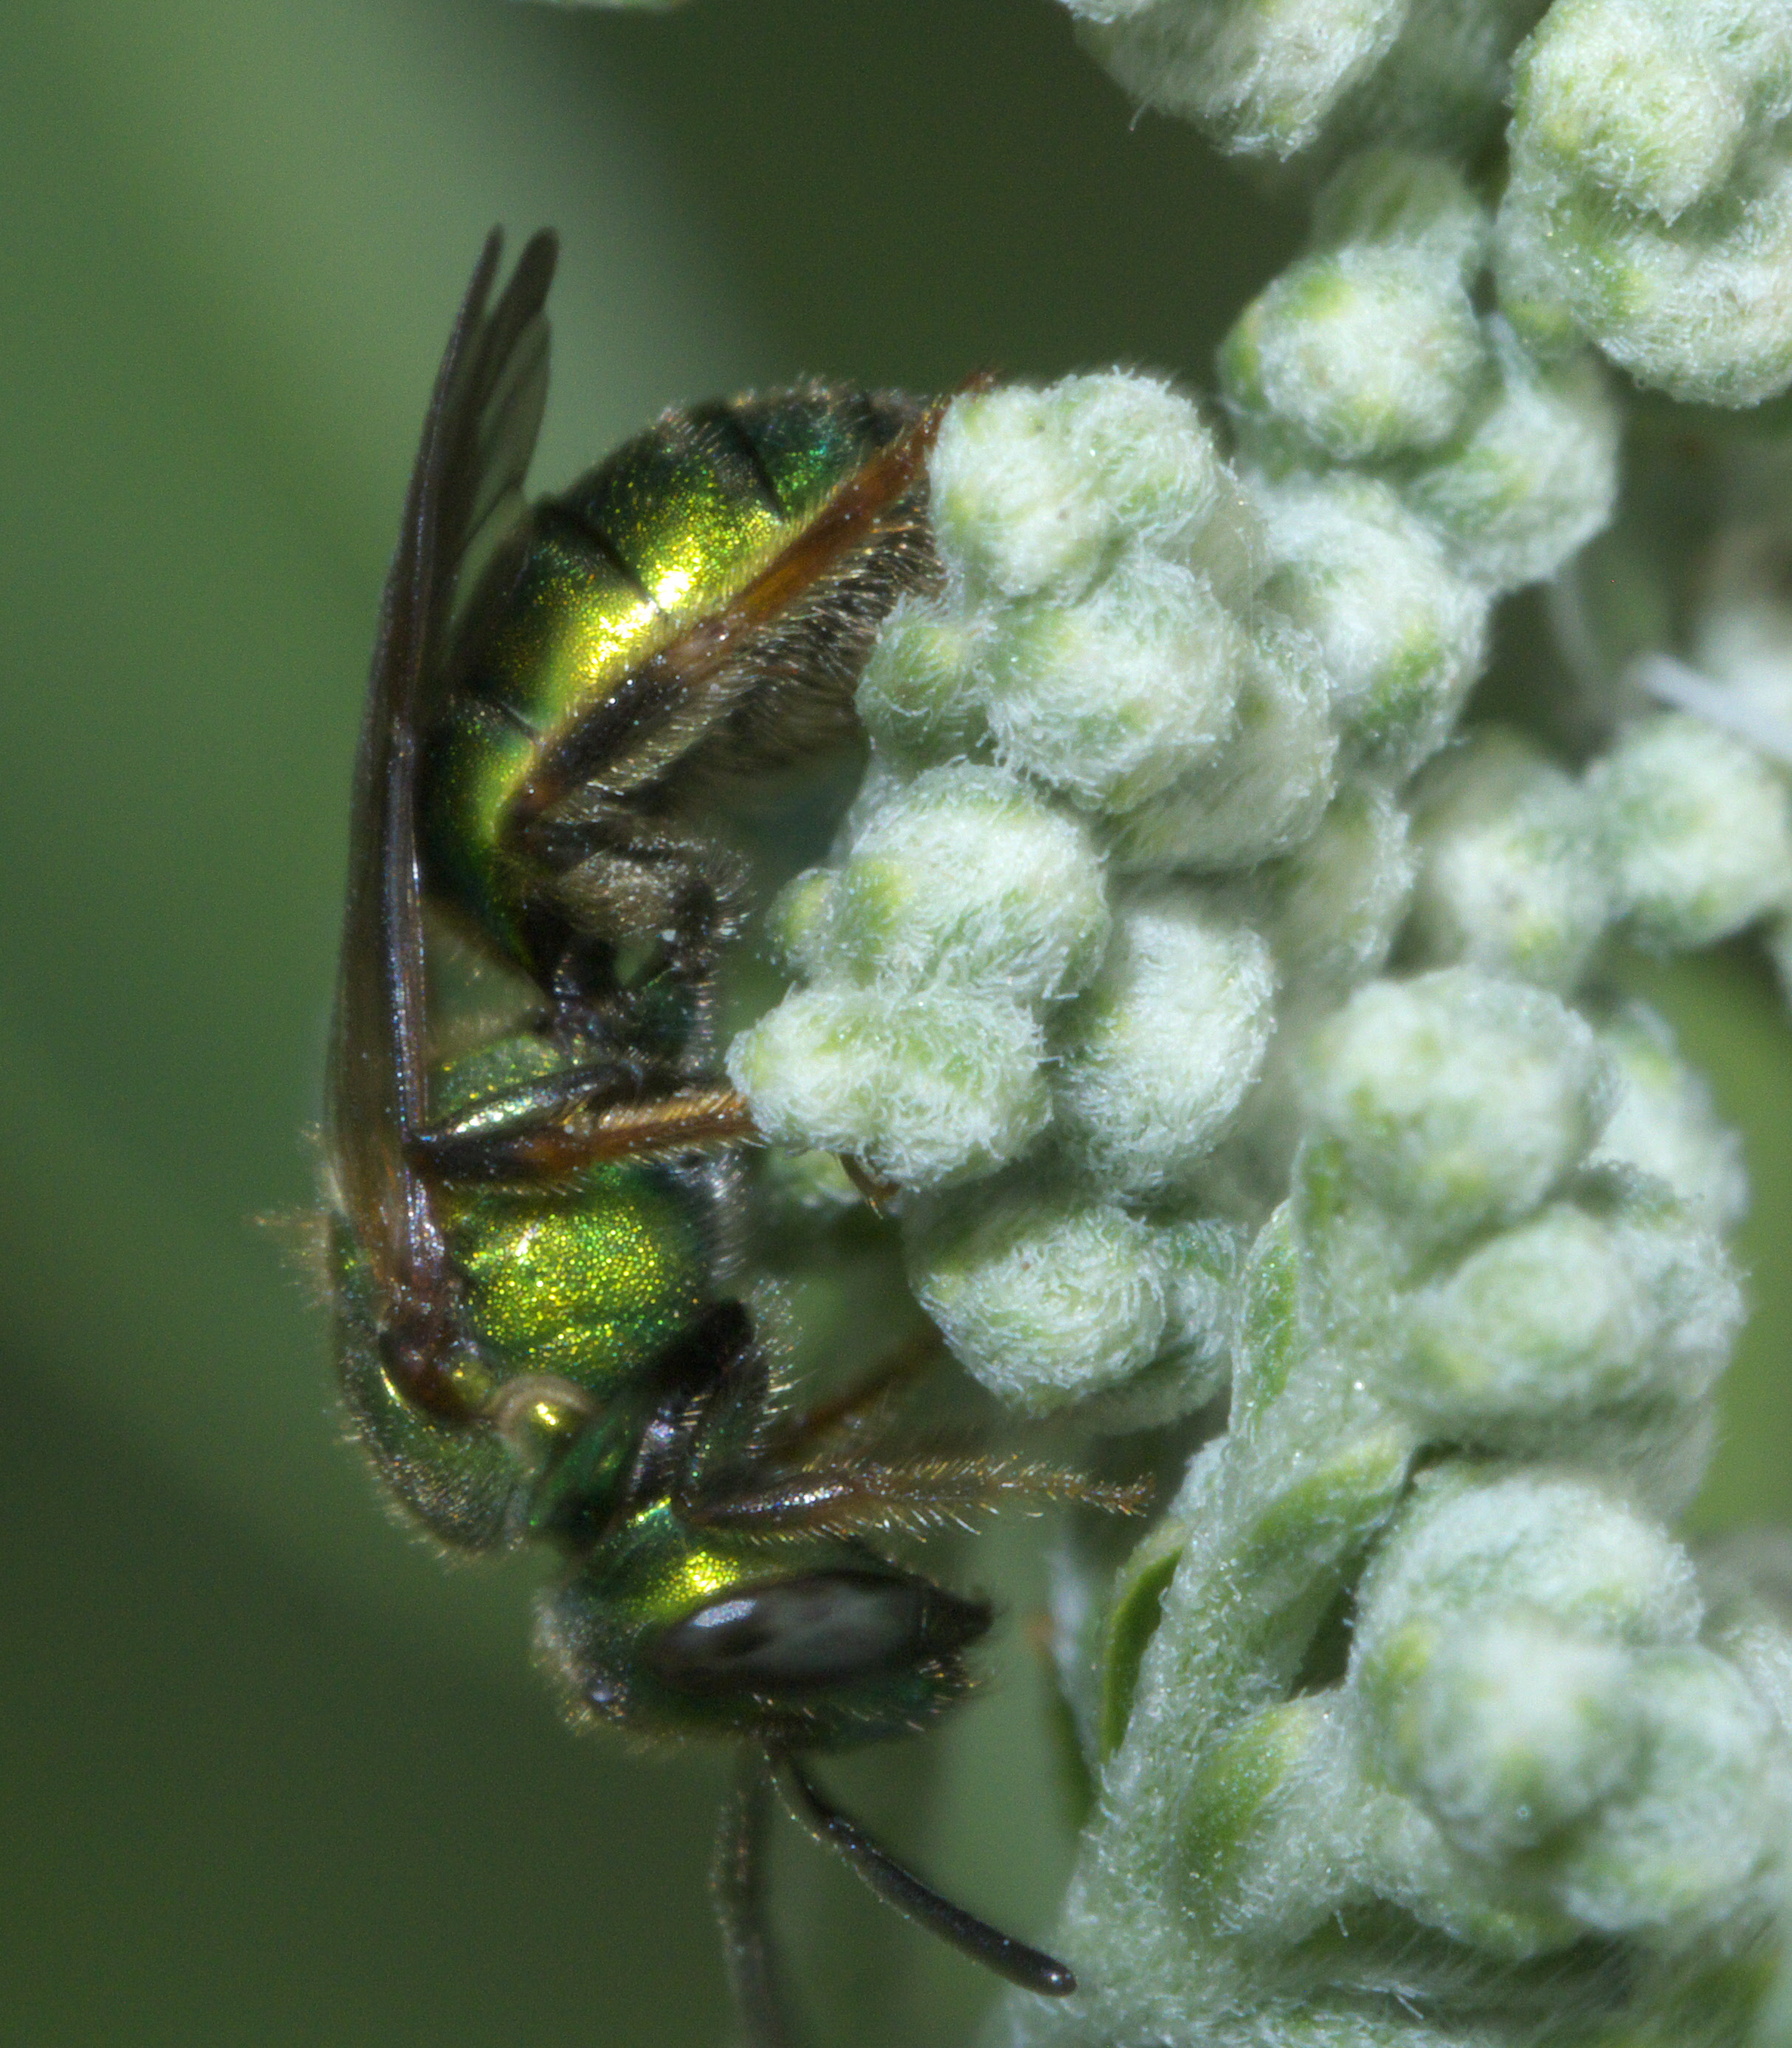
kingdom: Animalia
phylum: Arthropoda
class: Insecta
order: Hymenoptera
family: Halictidae
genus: Augochlora
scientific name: Augochlora pura
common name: Pure green sweat bee
